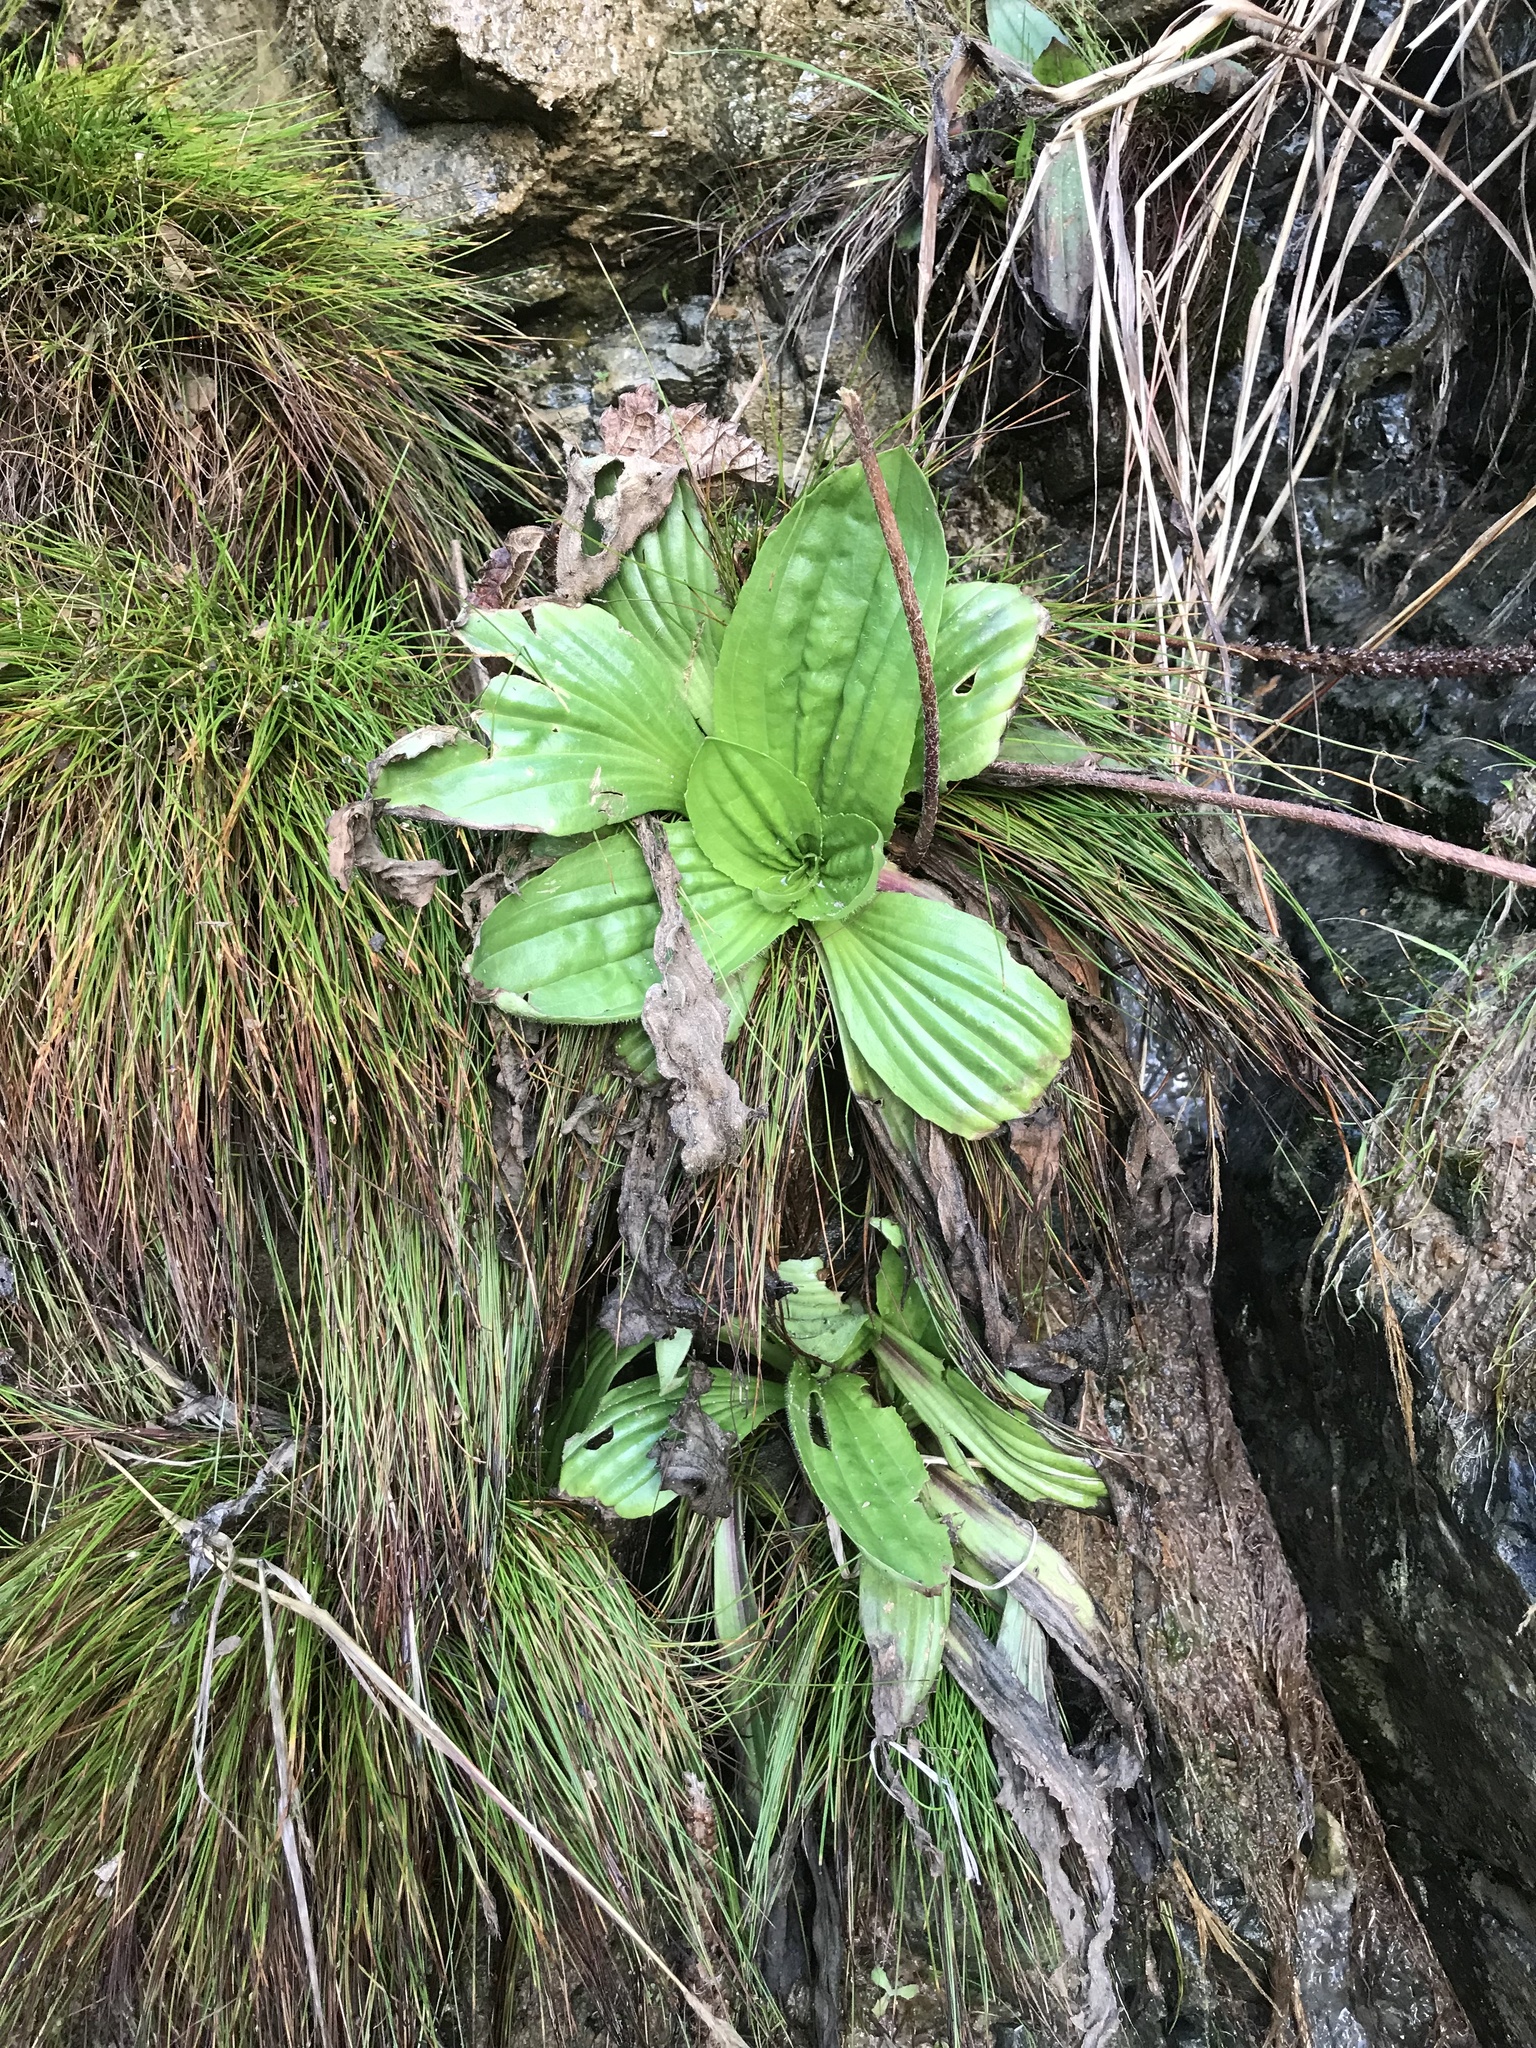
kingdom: Plantae
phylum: Tracheophyta
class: Magnoliopsida
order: Lamiales
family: Plantaginaceae
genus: Plantago
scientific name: Plantago subnuda
